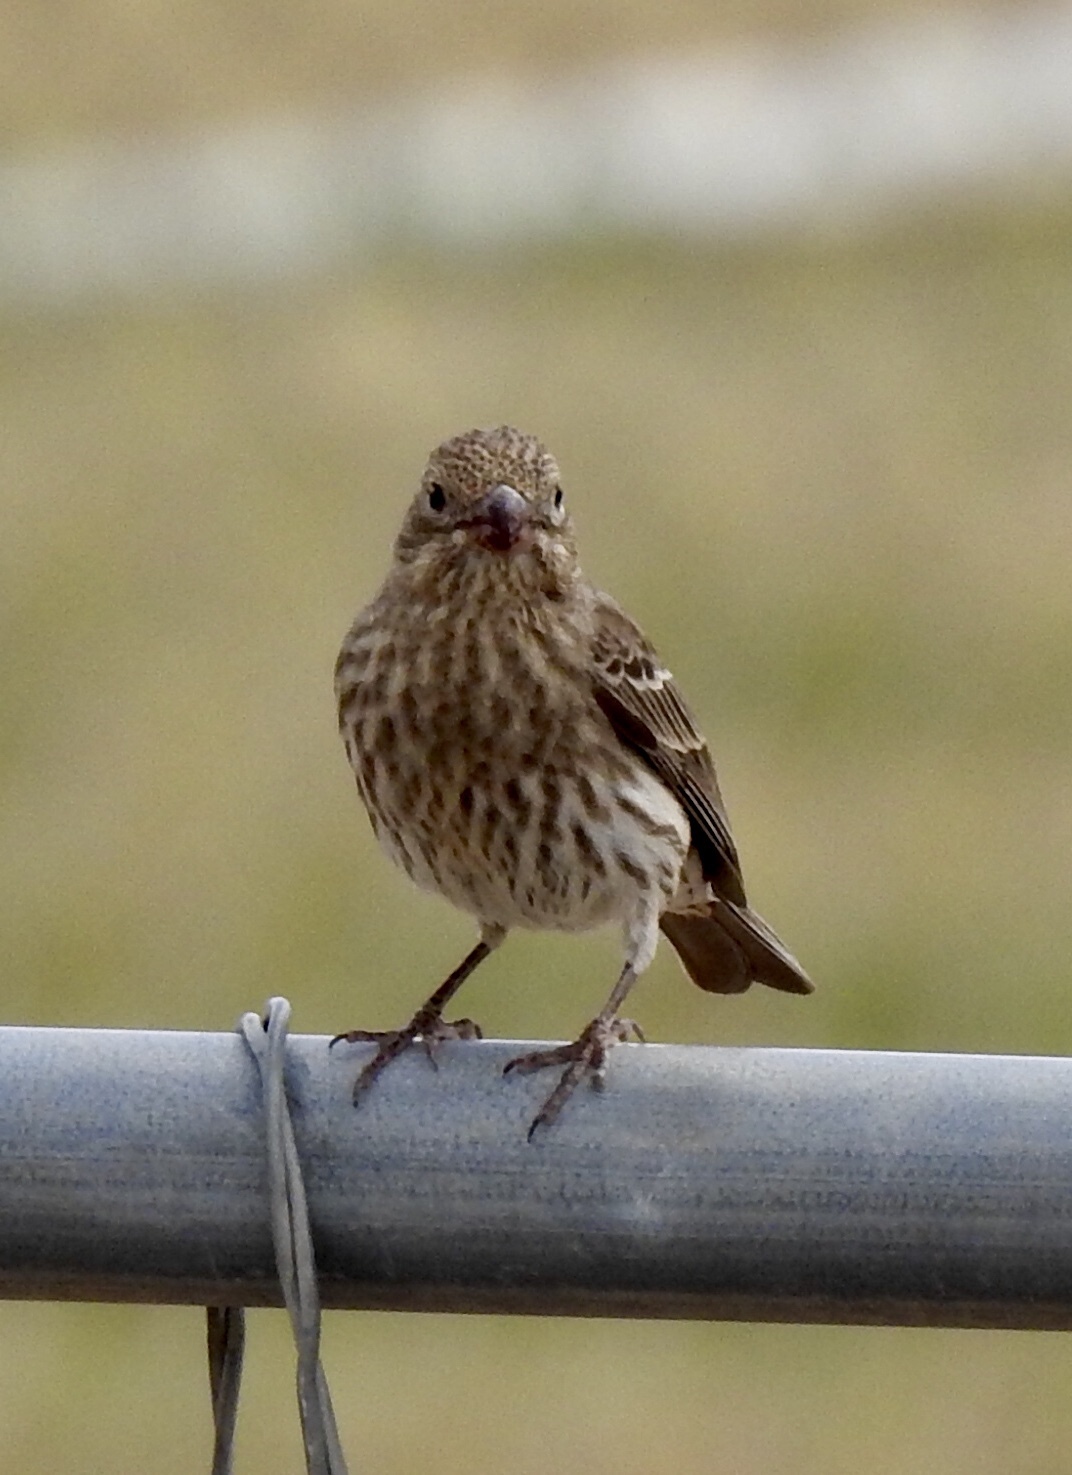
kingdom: Animalia
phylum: Chordata
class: Aves
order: Passeriformes
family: Fringillidae
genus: Haemorhous
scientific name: Haemorhous mexicanus
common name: House finch
